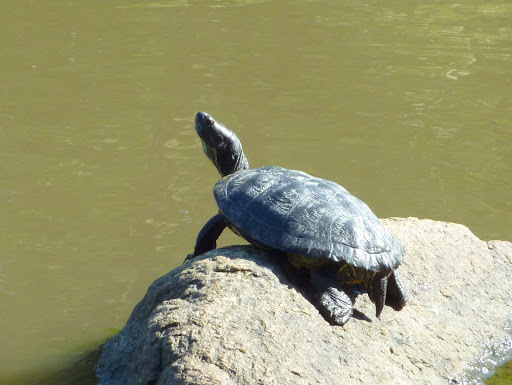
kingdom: Animalia
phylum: Chordata
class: Testudines
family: Emydidae
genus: Trachemys
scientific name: Trachemys scripta
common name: Slider
